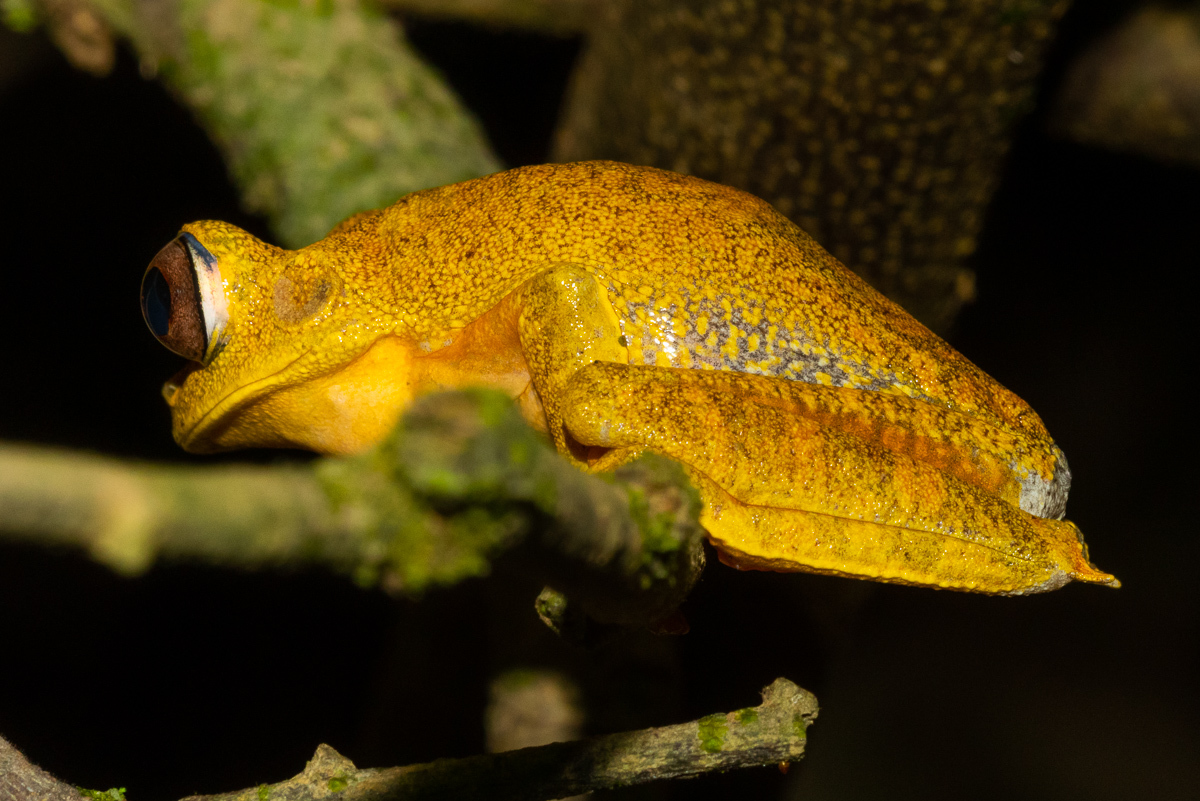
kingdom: Animalia
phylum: Chordata
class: Amphibia
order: Anura
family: Hylidae
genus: Boana
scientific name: Boana appendiculata
